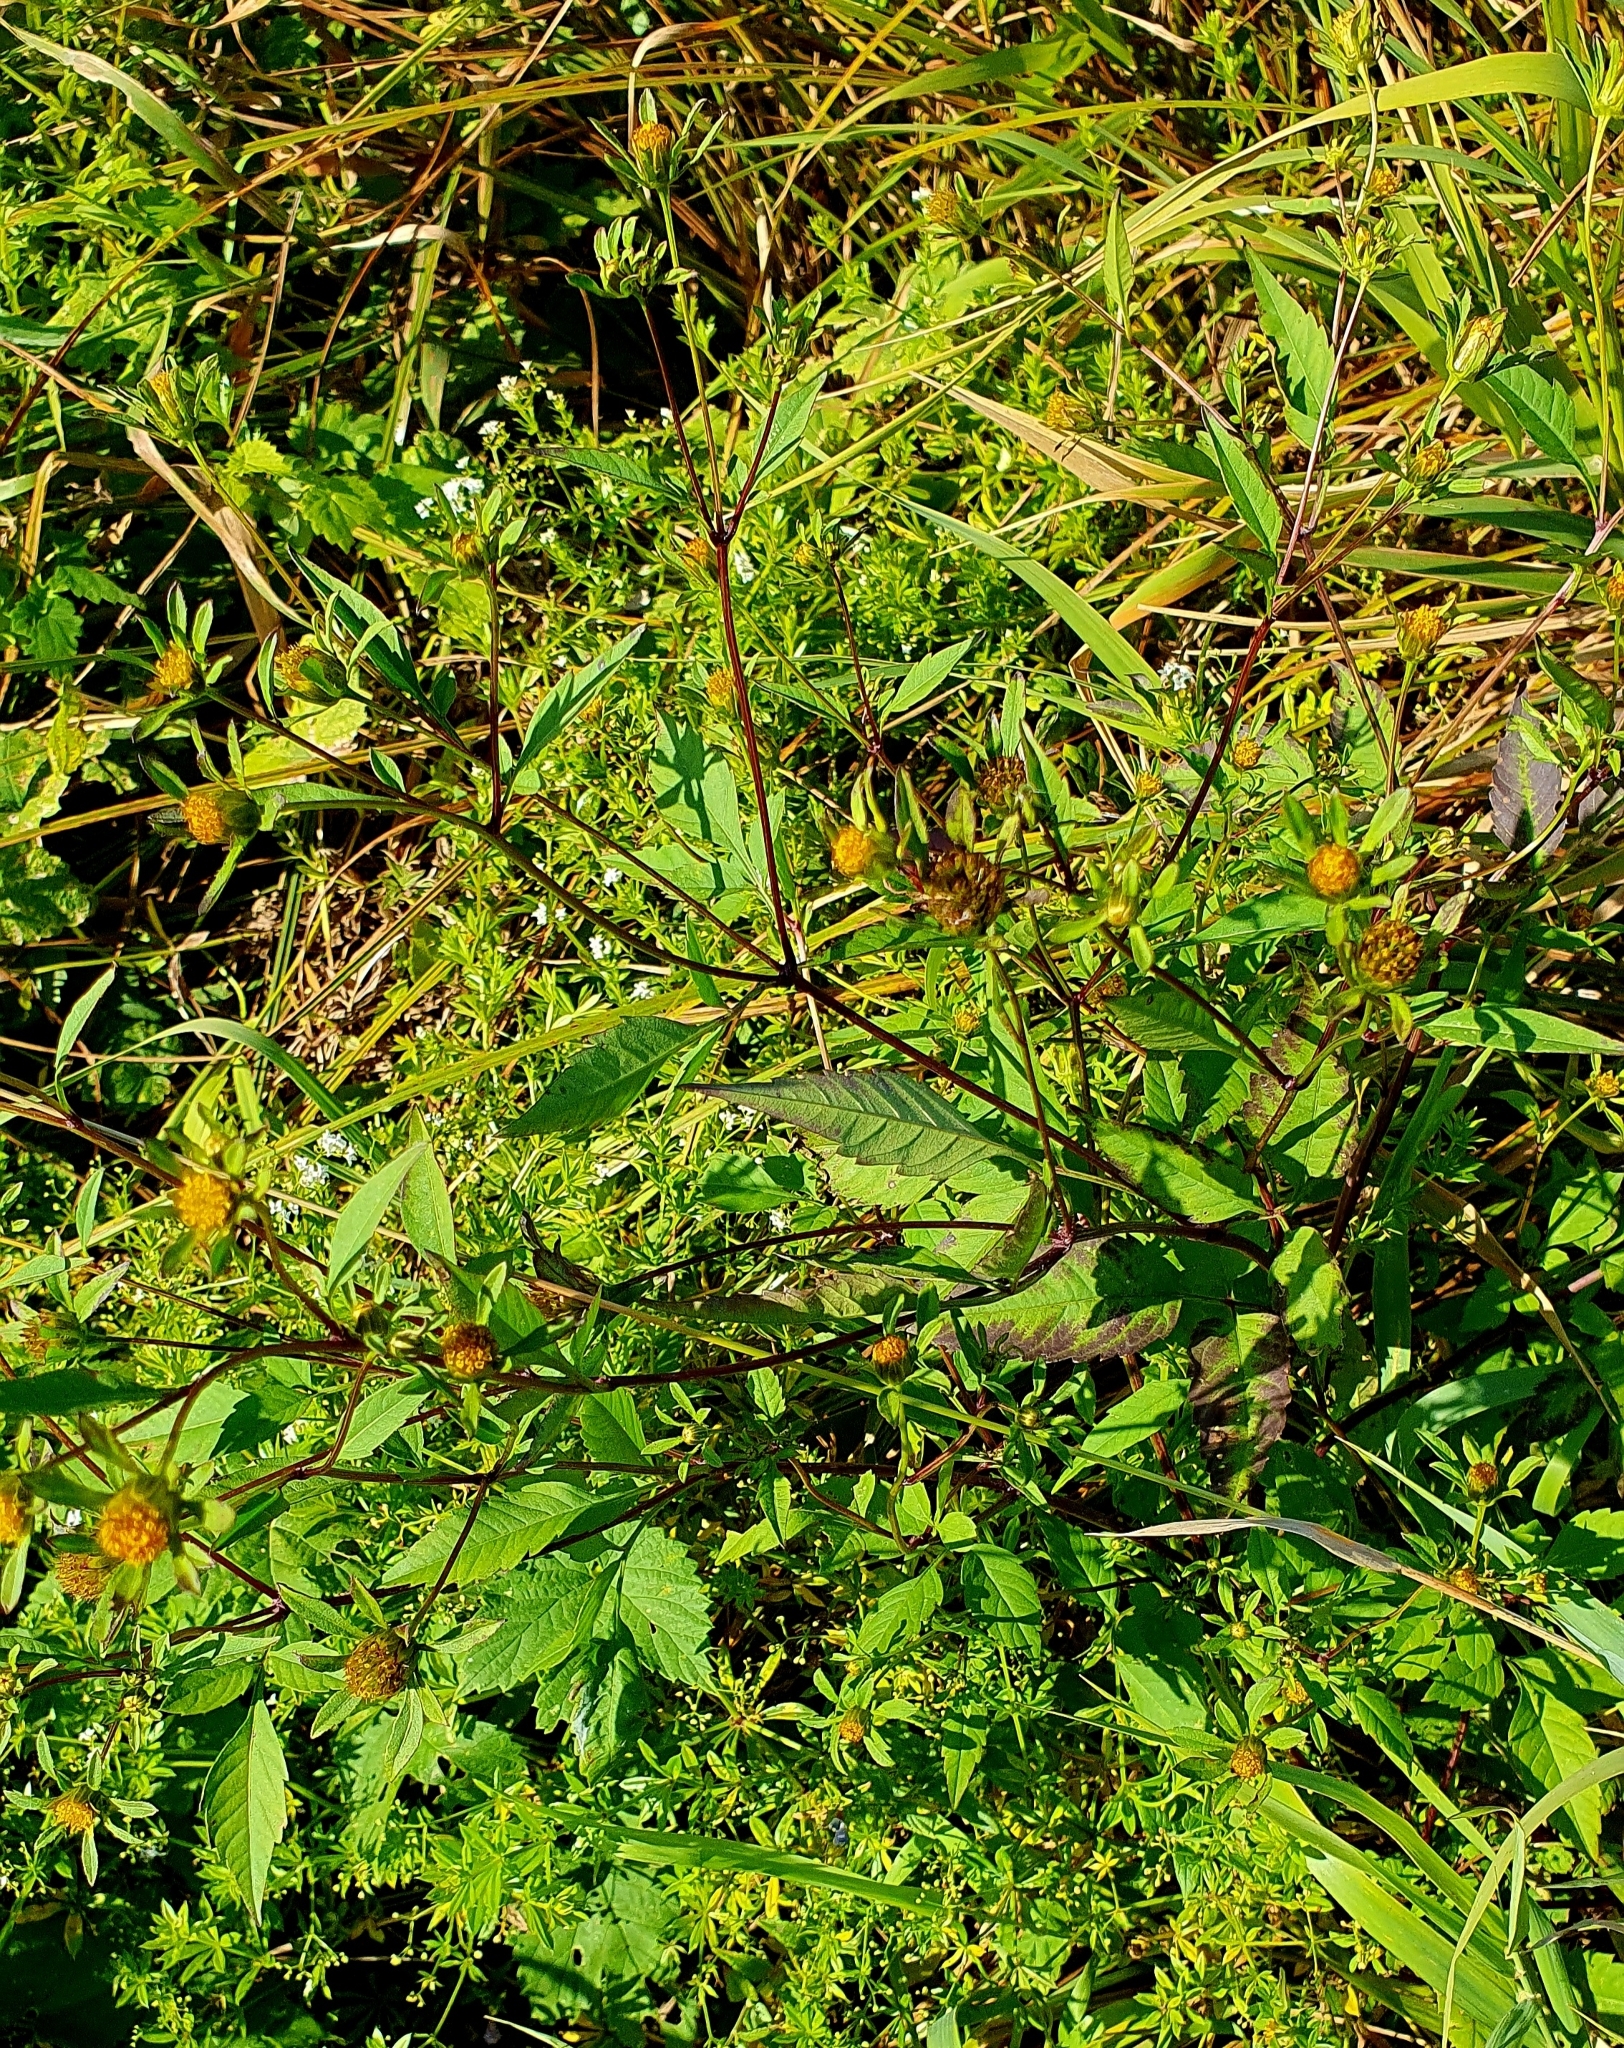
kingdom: Plantae
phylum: Tracheophyta
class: Magnoliopsida
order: Asterales
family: Asteraceae
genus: Bidens
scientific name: Bidens frondosa
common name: Beggarticks
